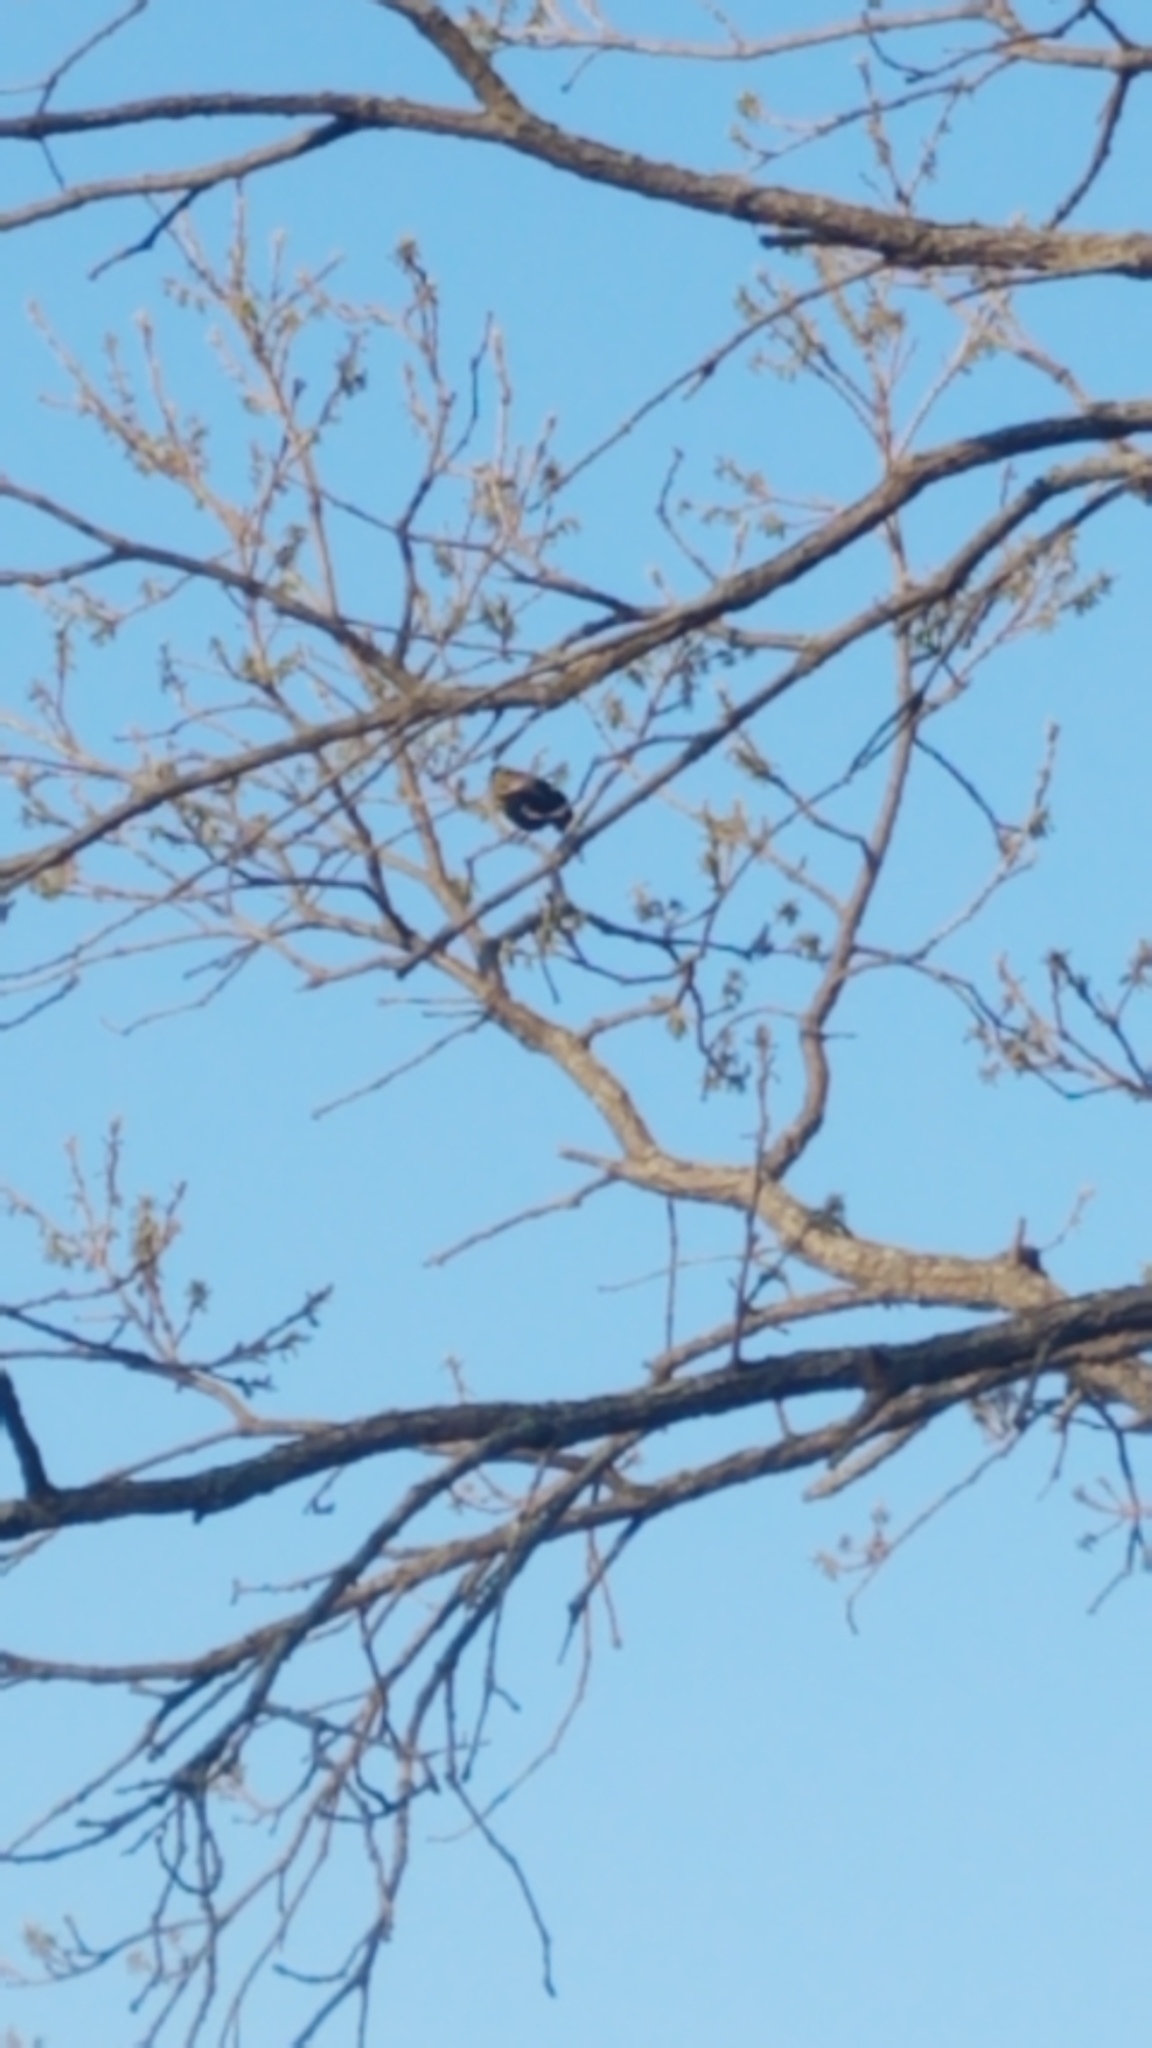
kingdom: Animalia
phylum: Chordata
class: Aves
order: Passeriformes
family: Icteridae
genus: Agelaius
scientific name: Agelaius phoeniceus
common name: Red-winged blackbird
